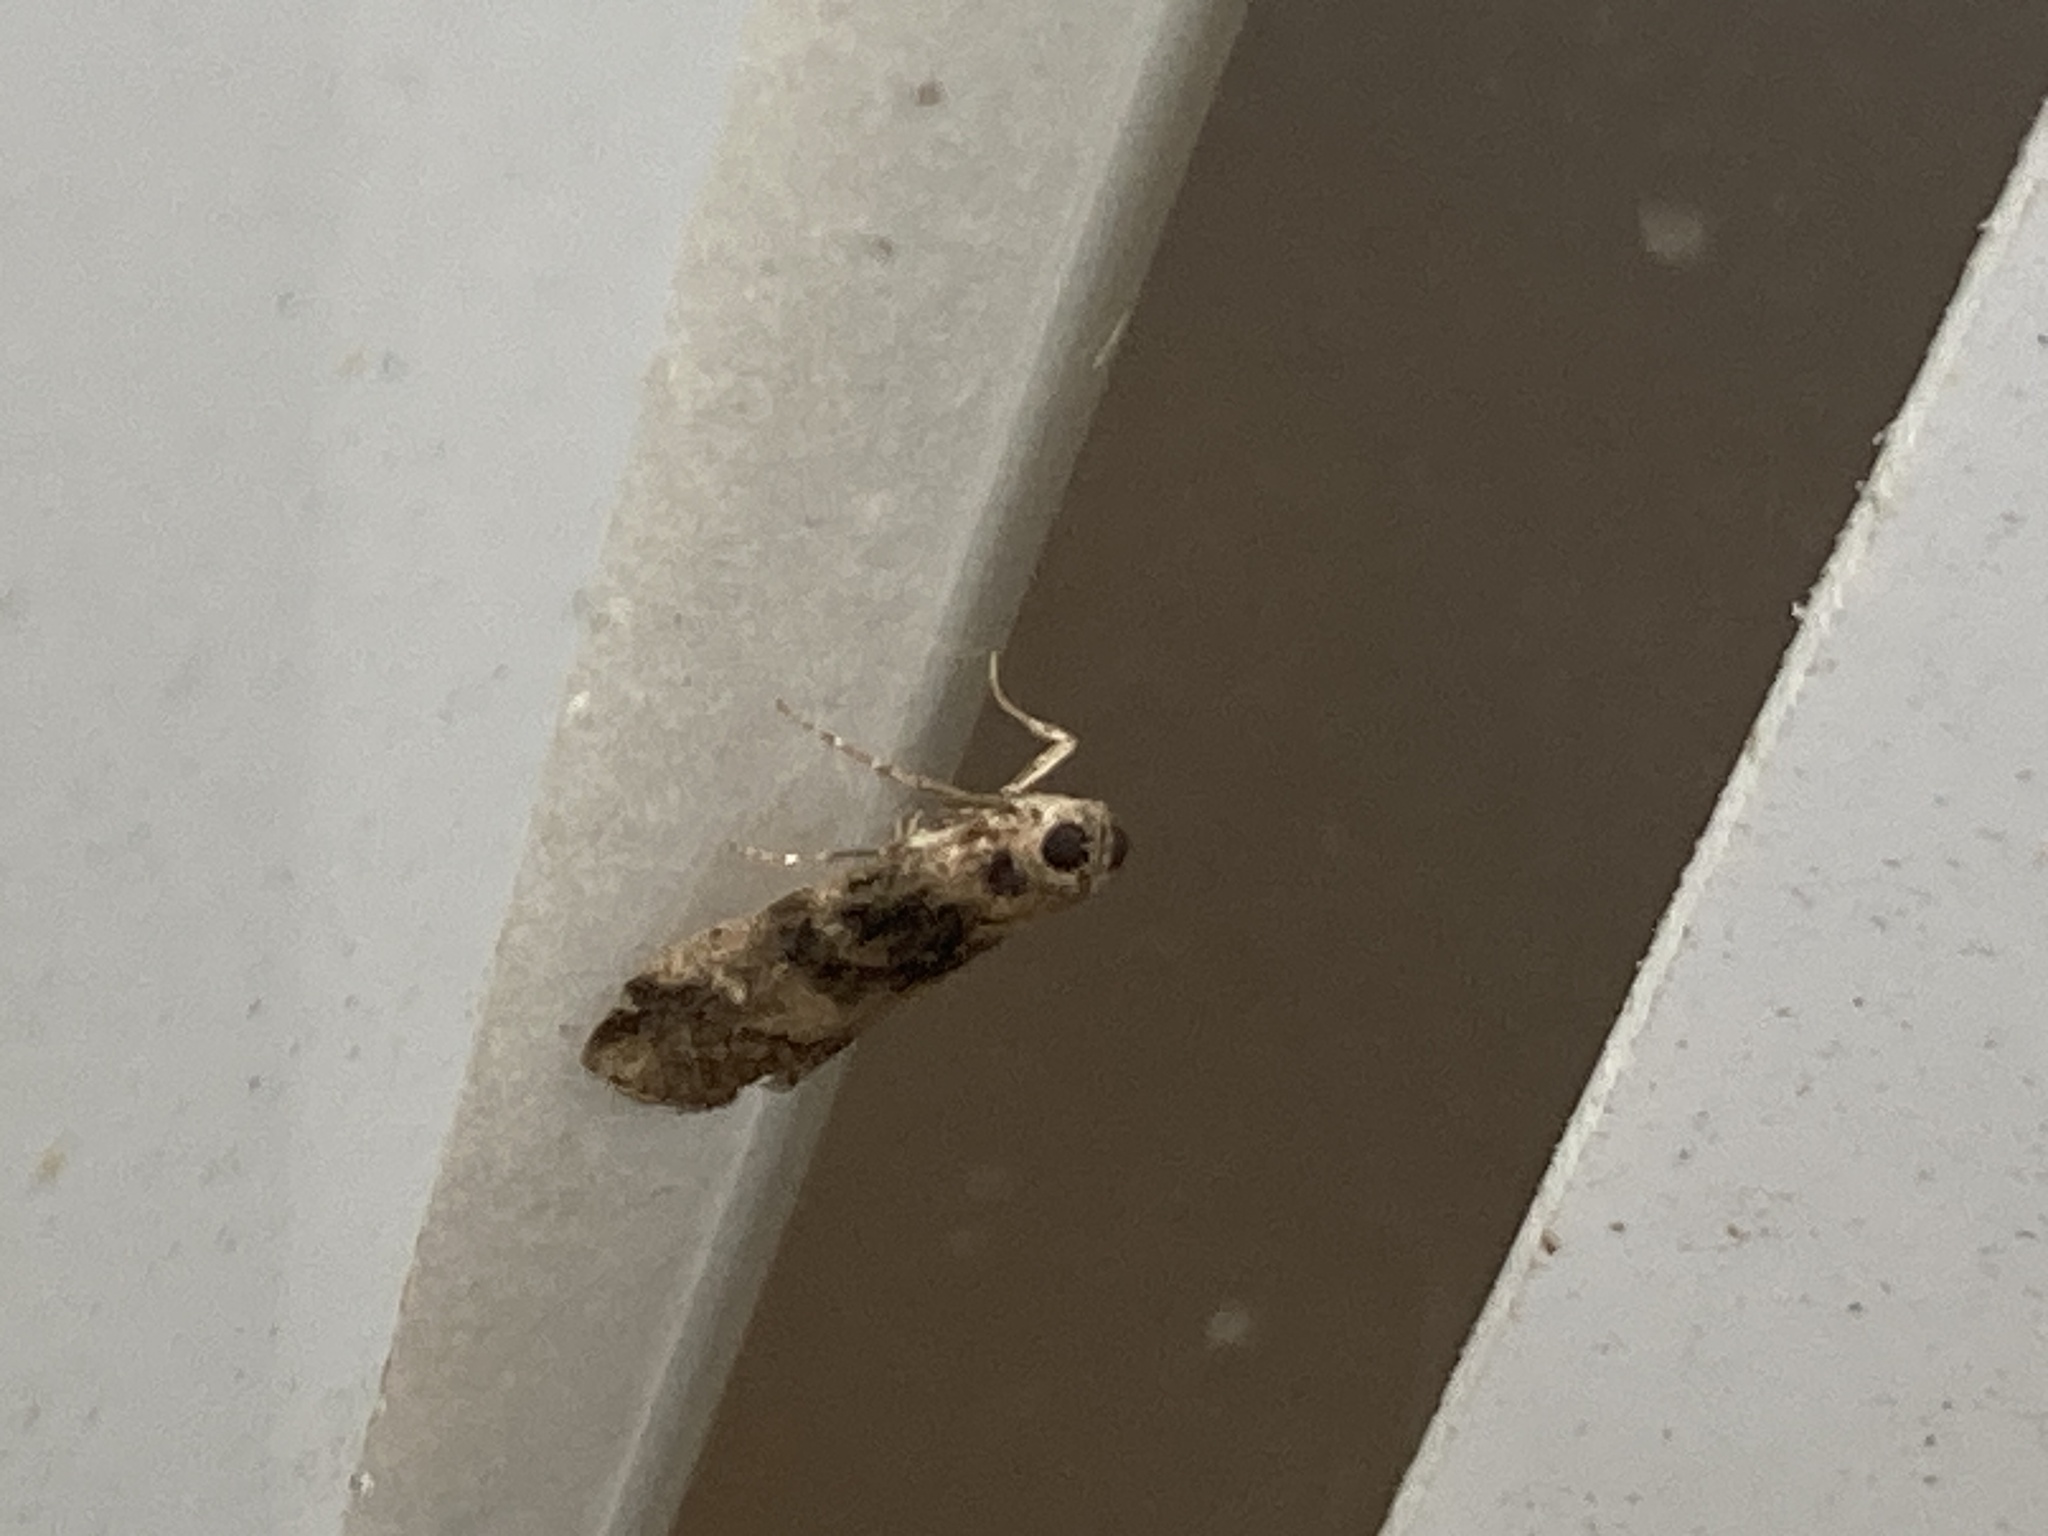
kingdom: Animalia
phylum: Arthropoda
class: Insecta
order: Lepidoptera
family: Pyralidae
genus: Euzophera
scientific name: Euzophera pinguis
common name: Ash-bark knot-horn
